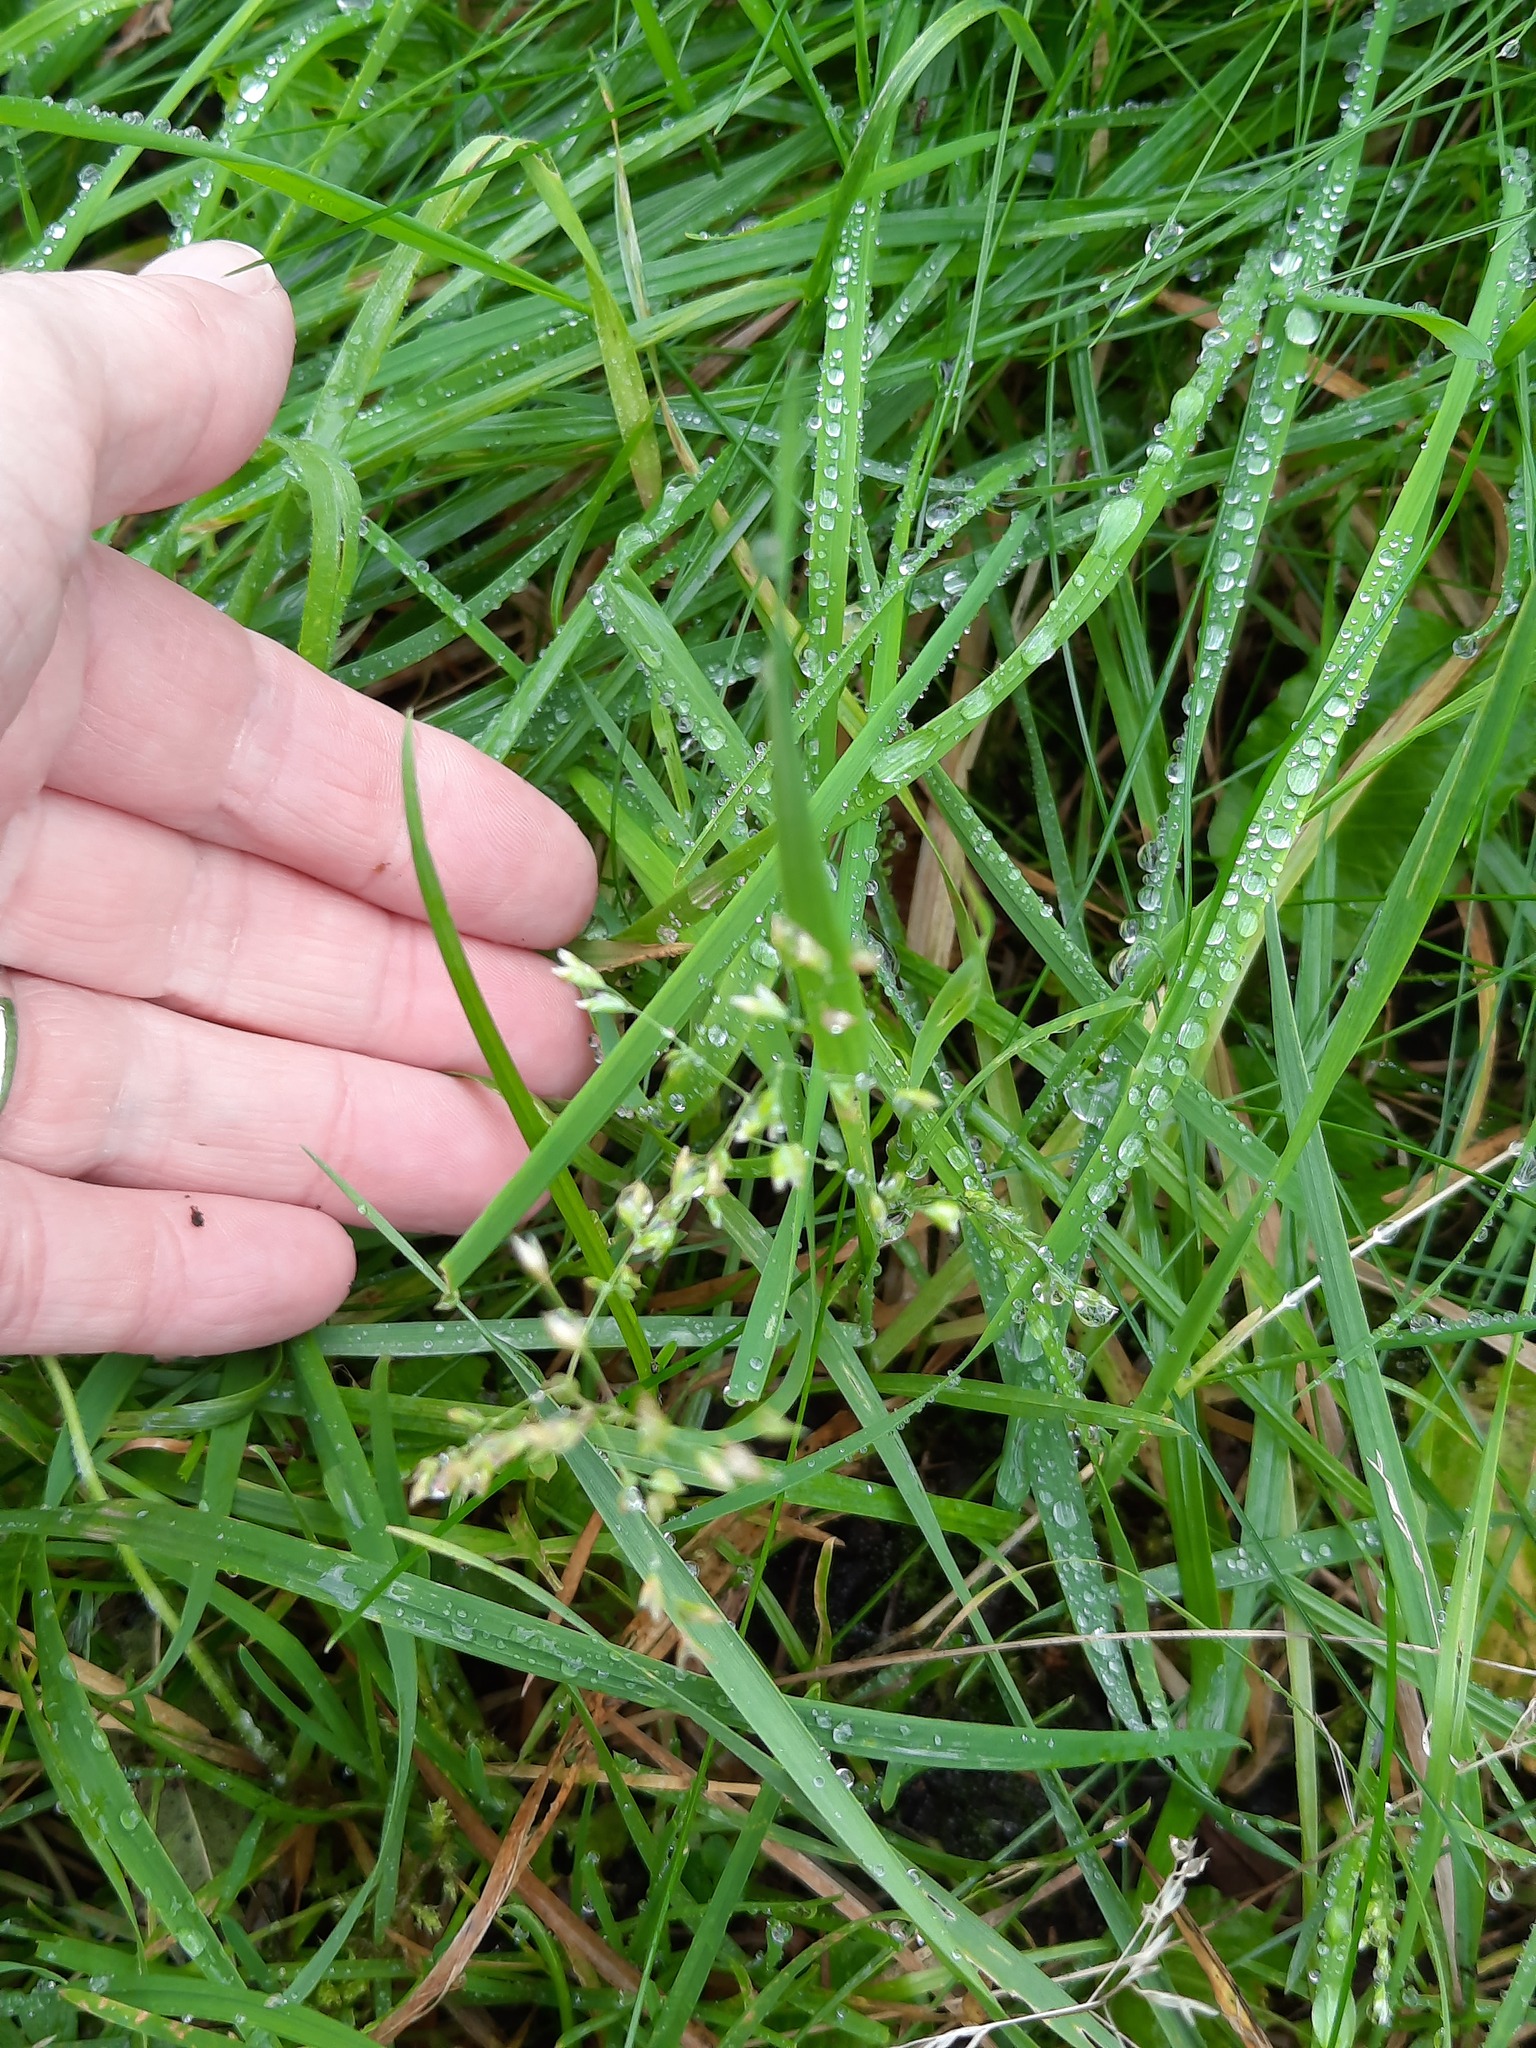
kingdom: Plantae
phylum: Tracheophyta
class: Liliopsida
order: Poales
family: Poaceae
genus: Poa
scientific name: Poa annua
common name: Annual bluegrass
